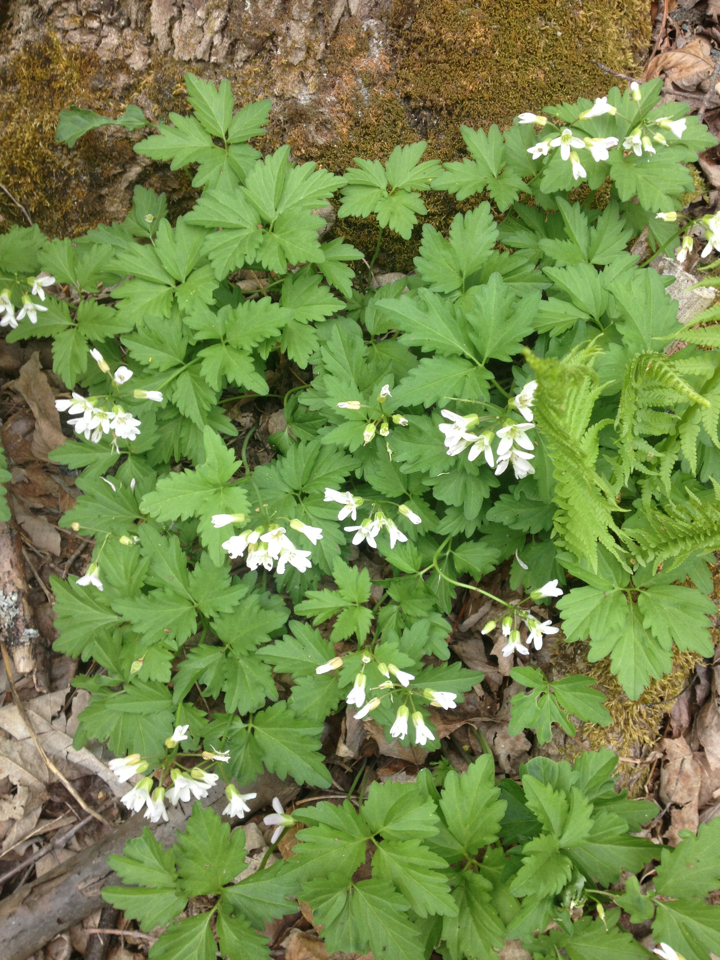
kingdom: Plantae
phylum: Tracheophyta
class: Magnoliopsida
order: Brassicales
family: Brassicaceae
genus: Cardamine
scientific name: Cardamine diphylla
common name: Broad-leaved toothwort
